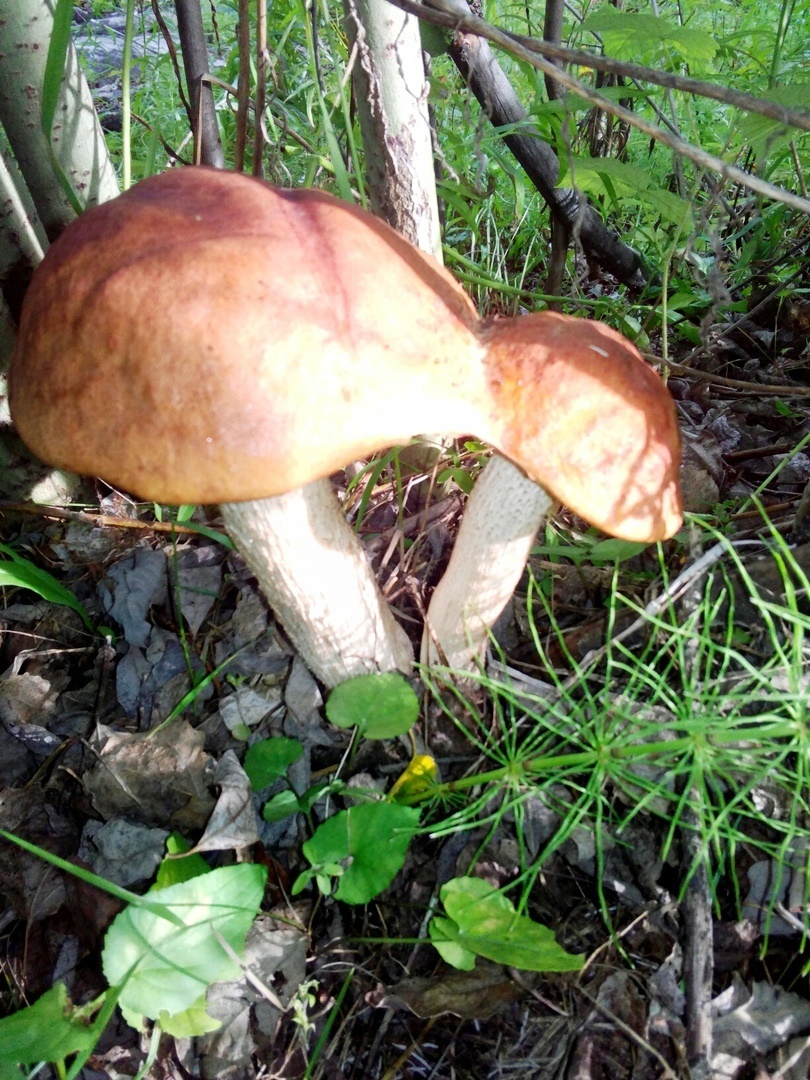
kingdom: Fungi
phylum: Basidiomycota
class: Agaricomycetes
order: Boletales
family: Boletaceae
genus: Leccinum
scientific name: Leccinum albostipitatum
